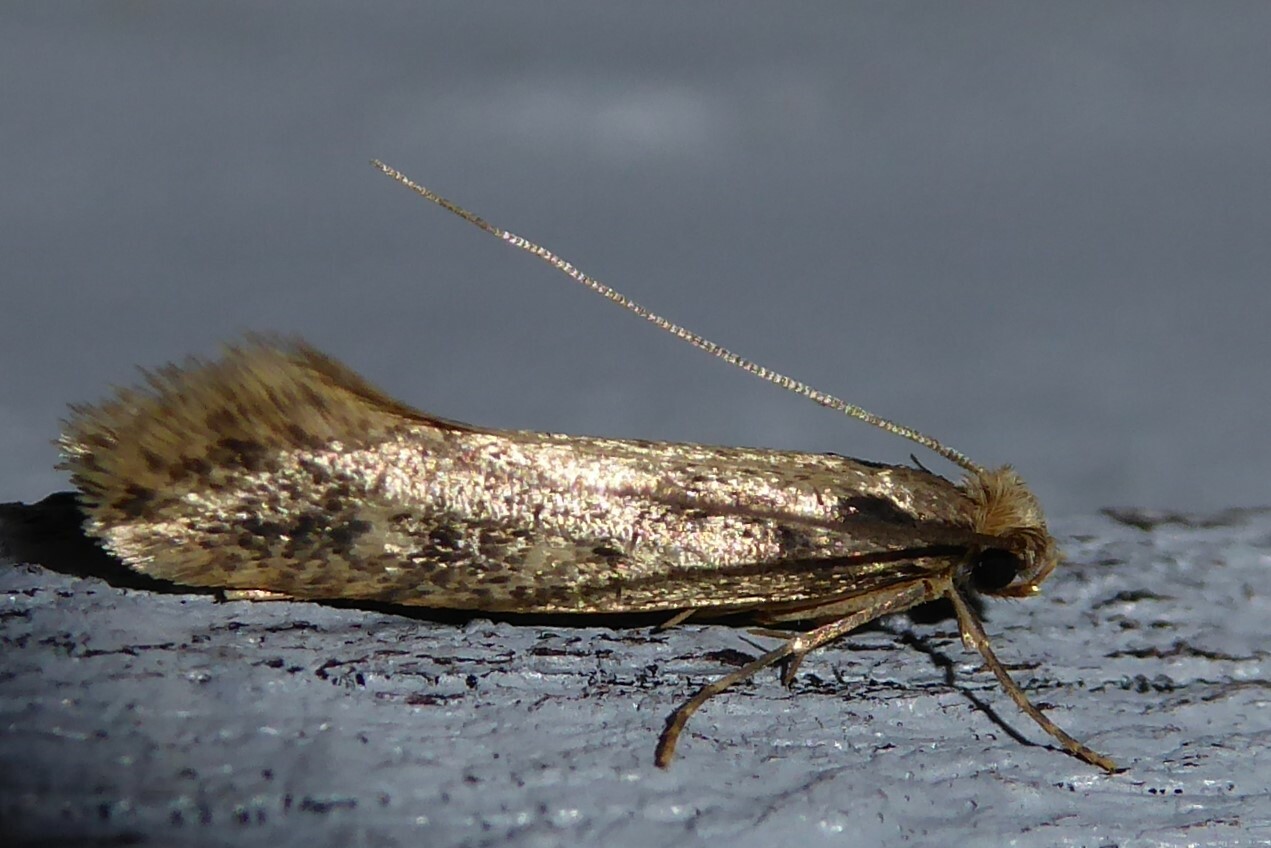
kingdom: Animalia
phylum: Arthropoda
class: Insecta
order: Lepidoptera
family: Tineidae
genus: Tinea
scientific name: Tinea pallescentella
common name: Large pale clothes moth
